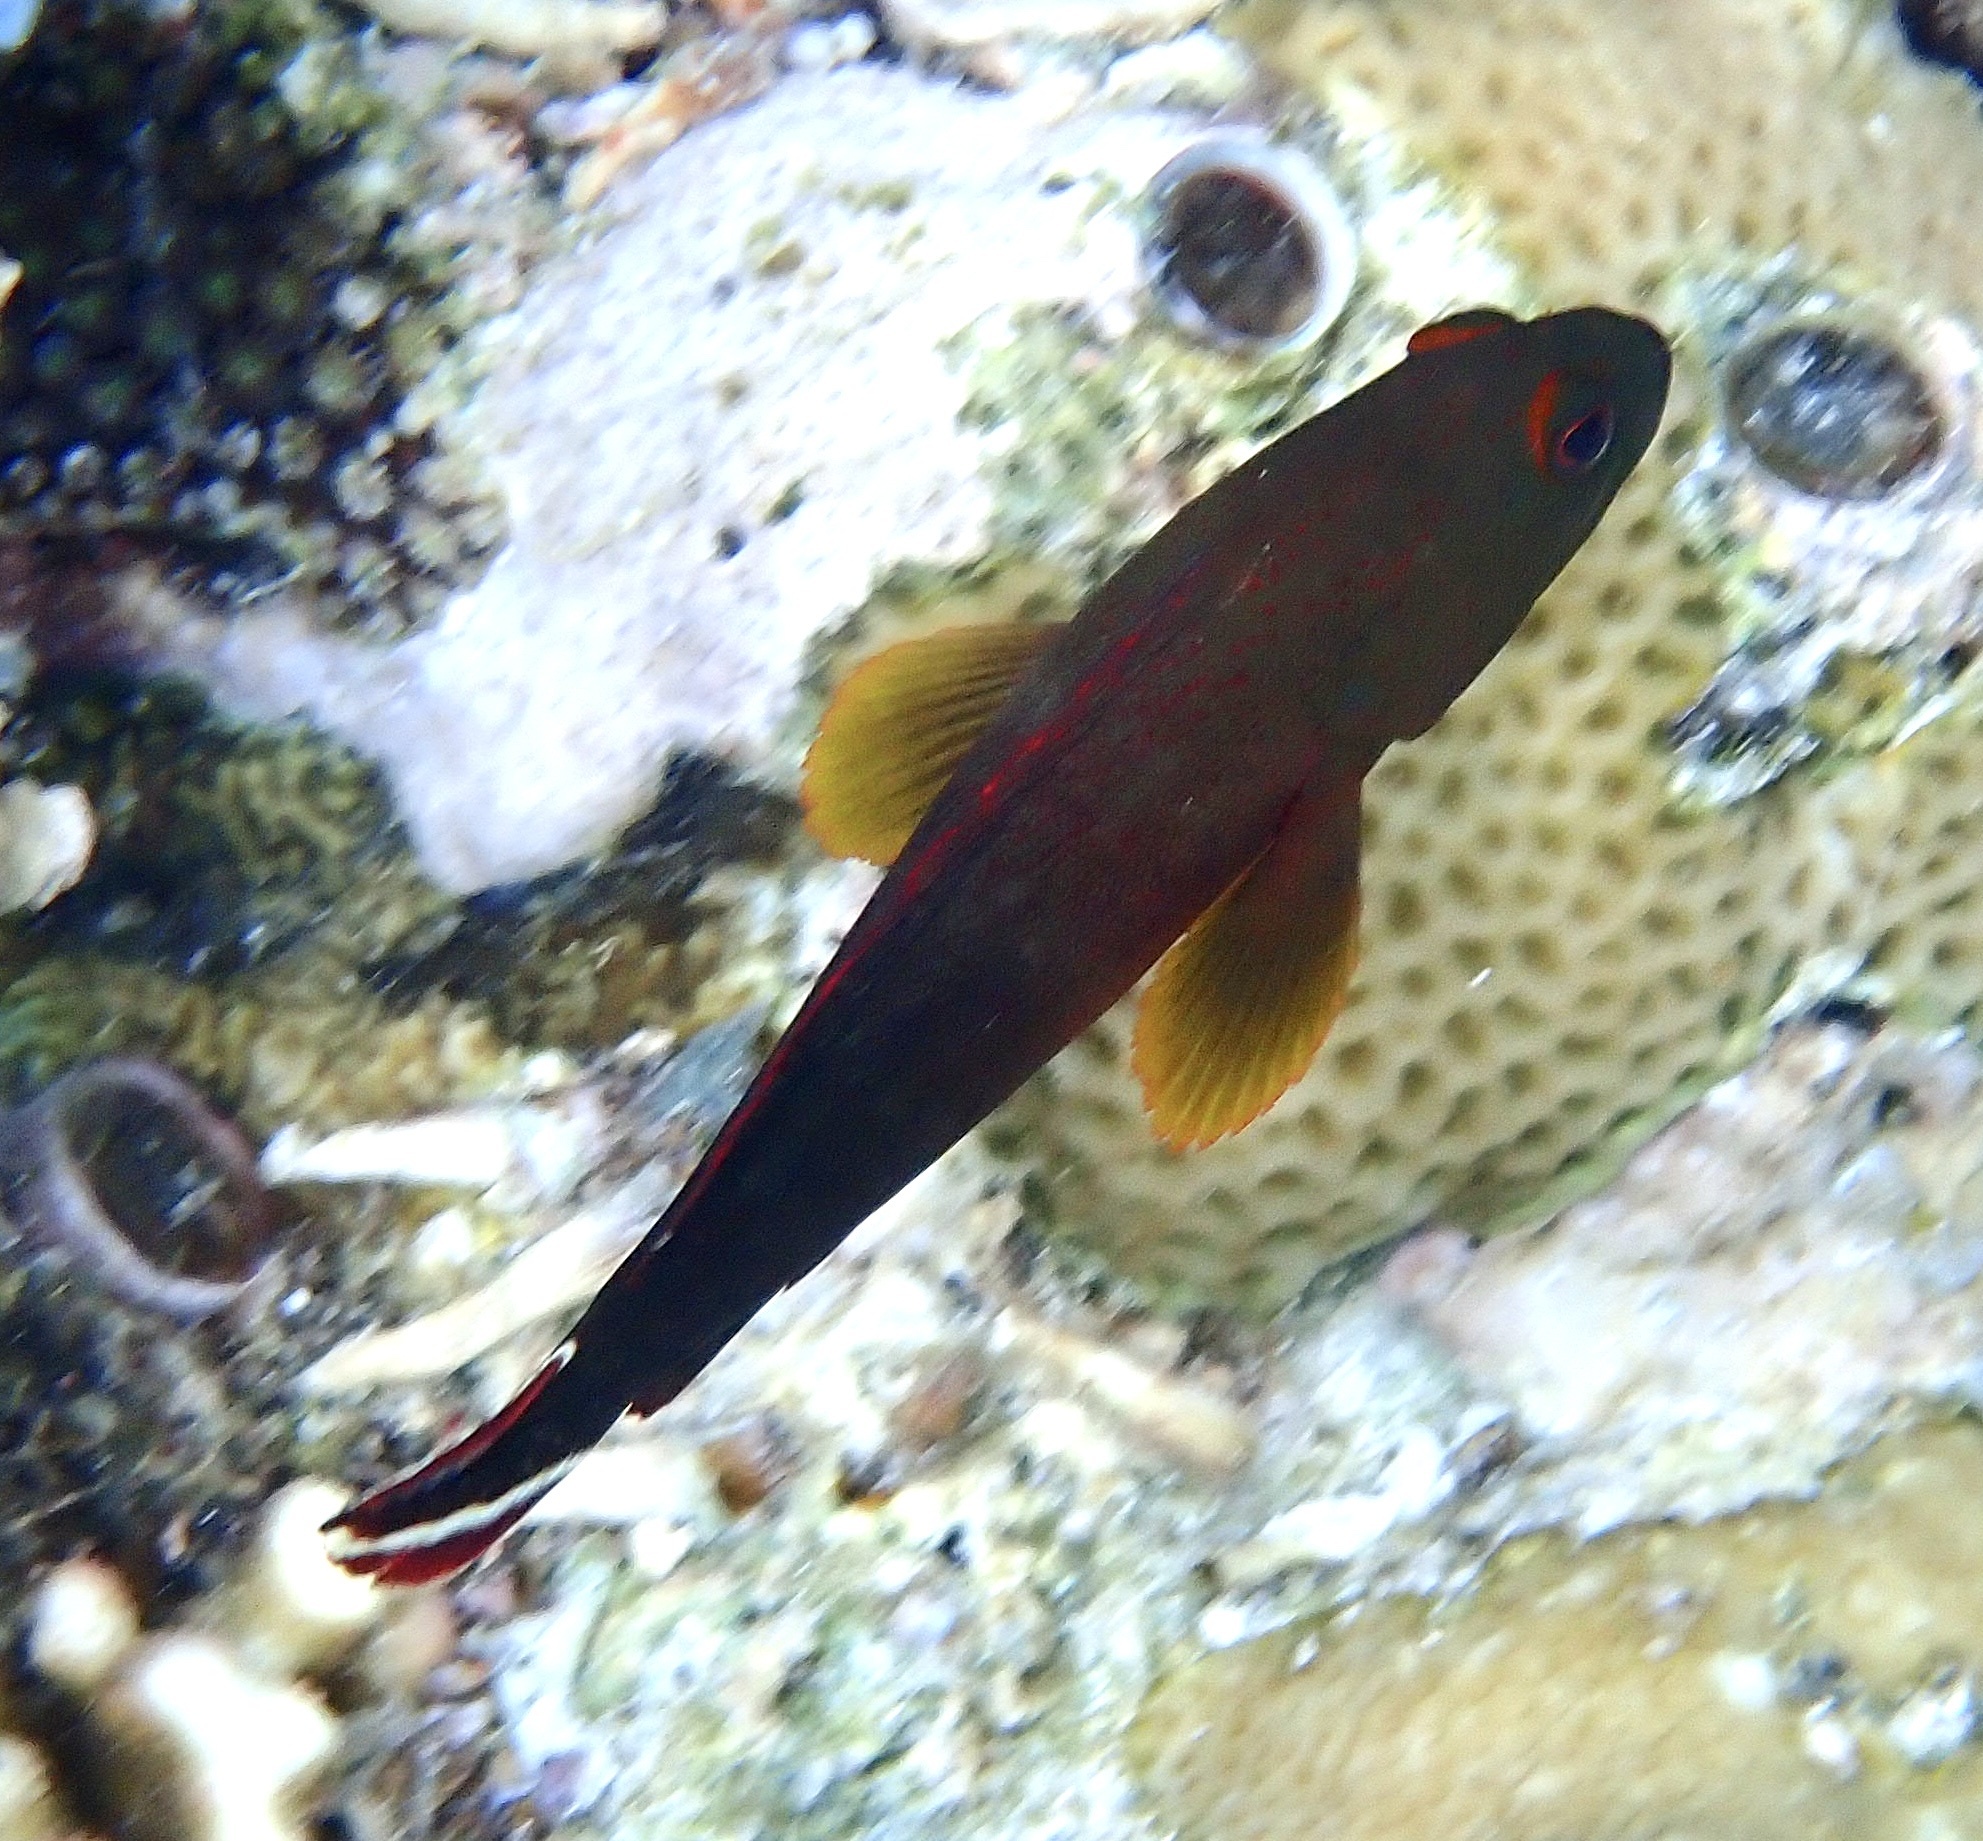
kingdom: Animalia
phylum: Chordata
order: Perciformes
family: Serranidae
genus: Cephalopholis
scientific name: Cephalopholis urodeta
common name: Darkfin hind
